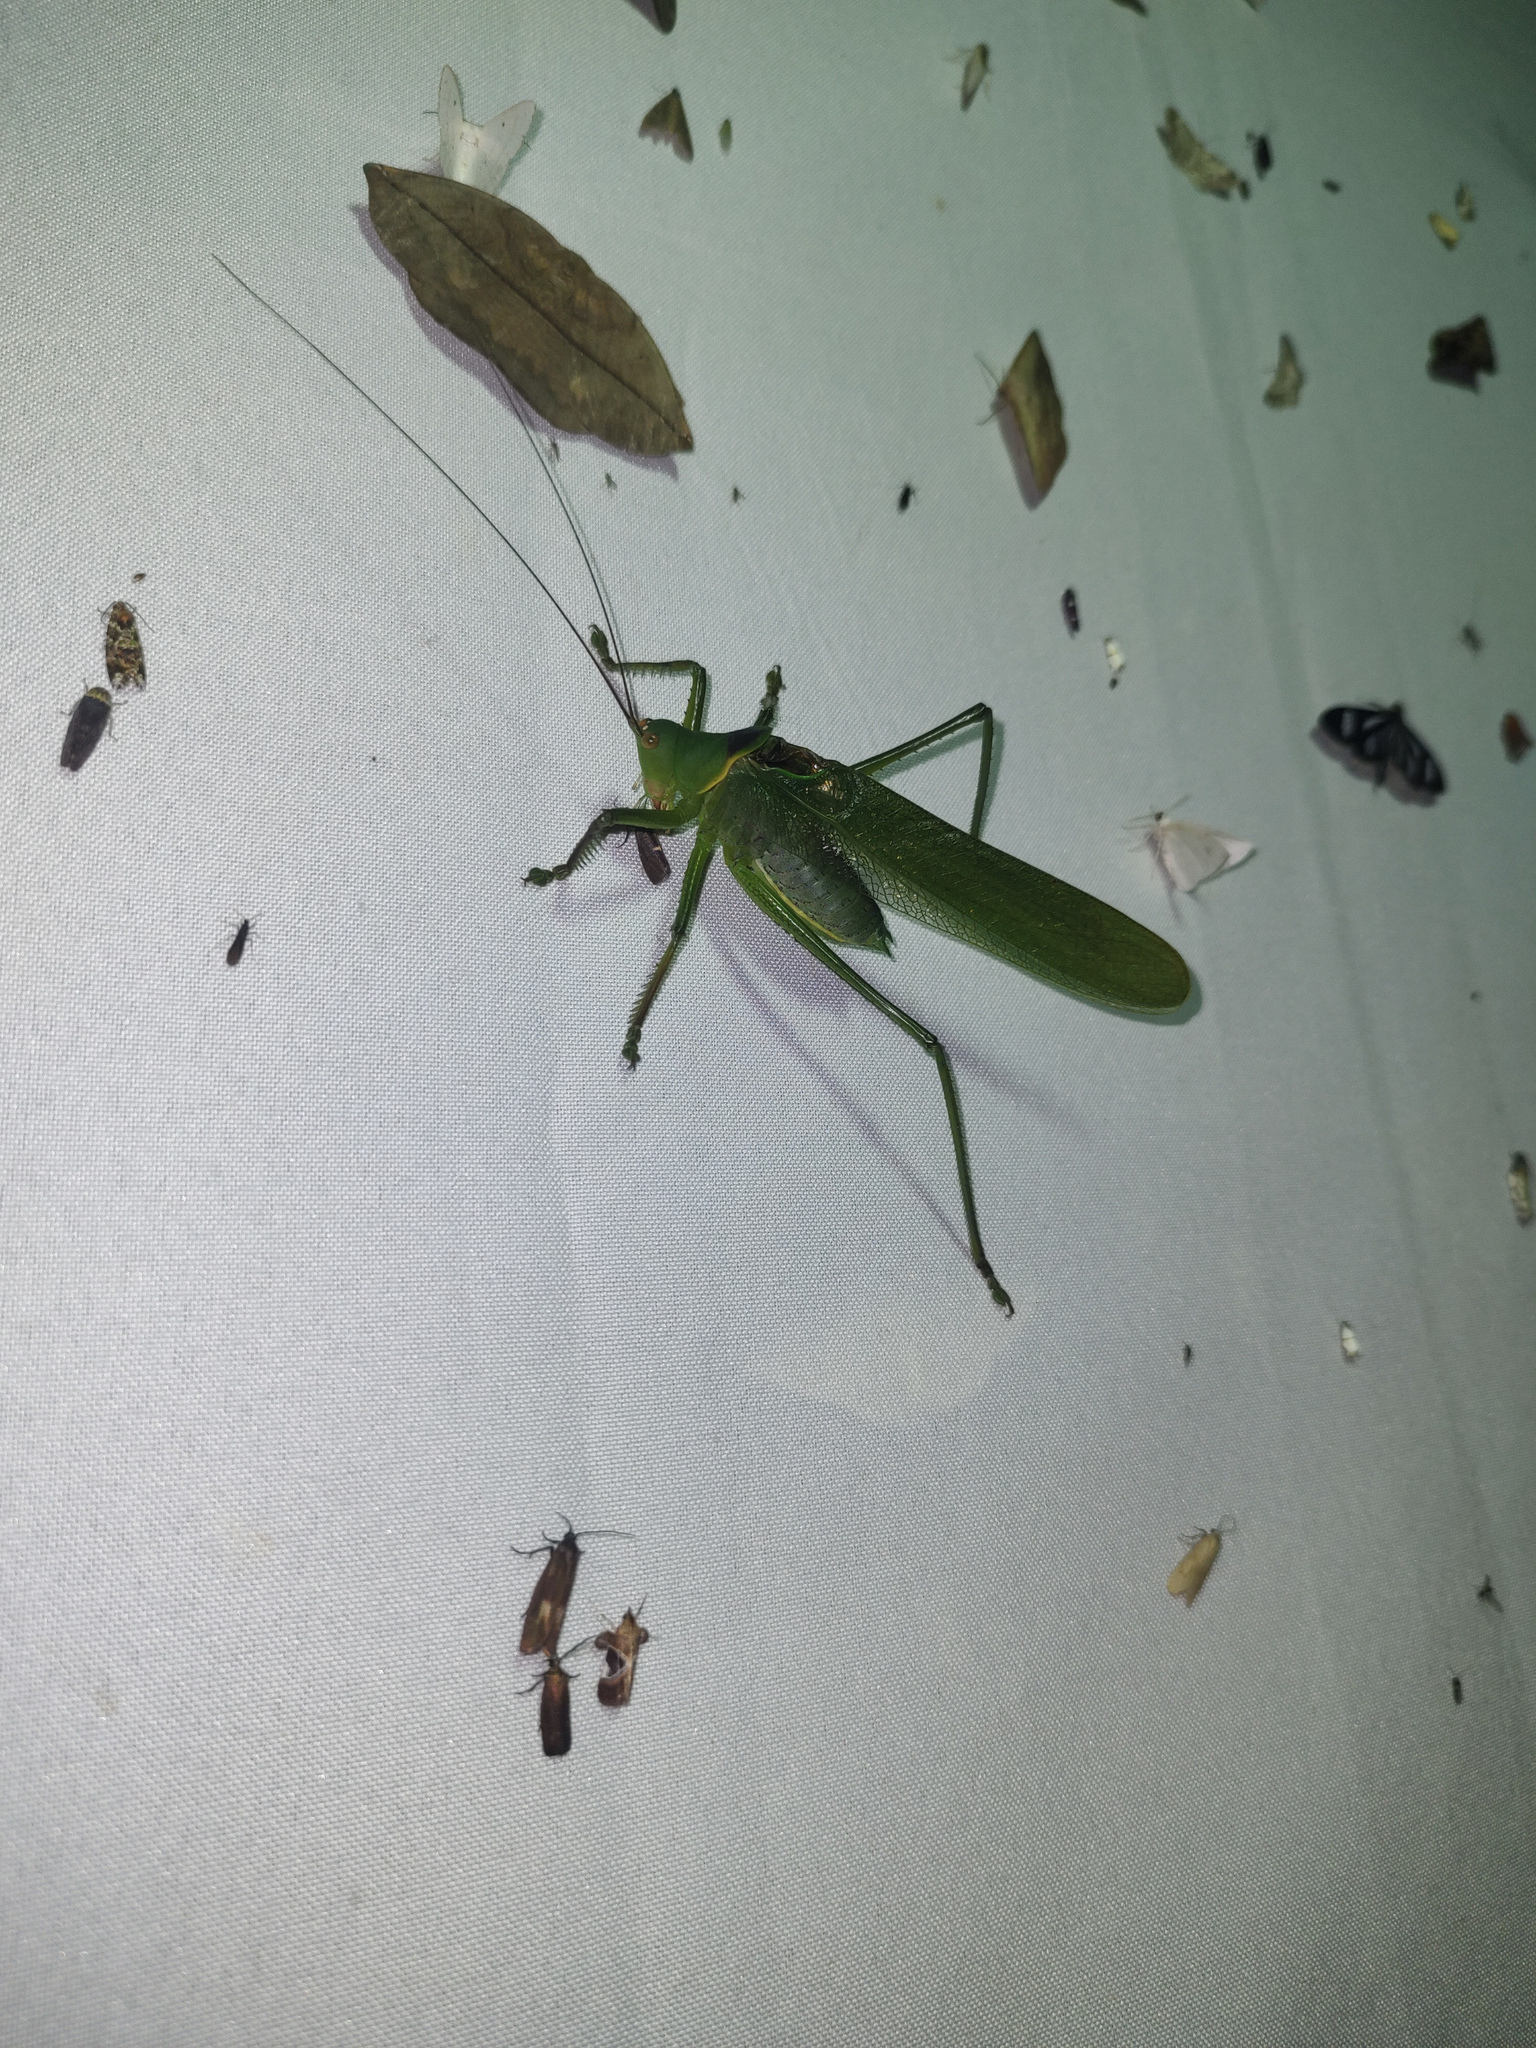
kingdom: Animalia
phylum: Arthropoda
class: Insecta
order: Orthoptera
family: Tettigoniidae
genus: Megatympanon
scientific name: Megatympanon speculatum
